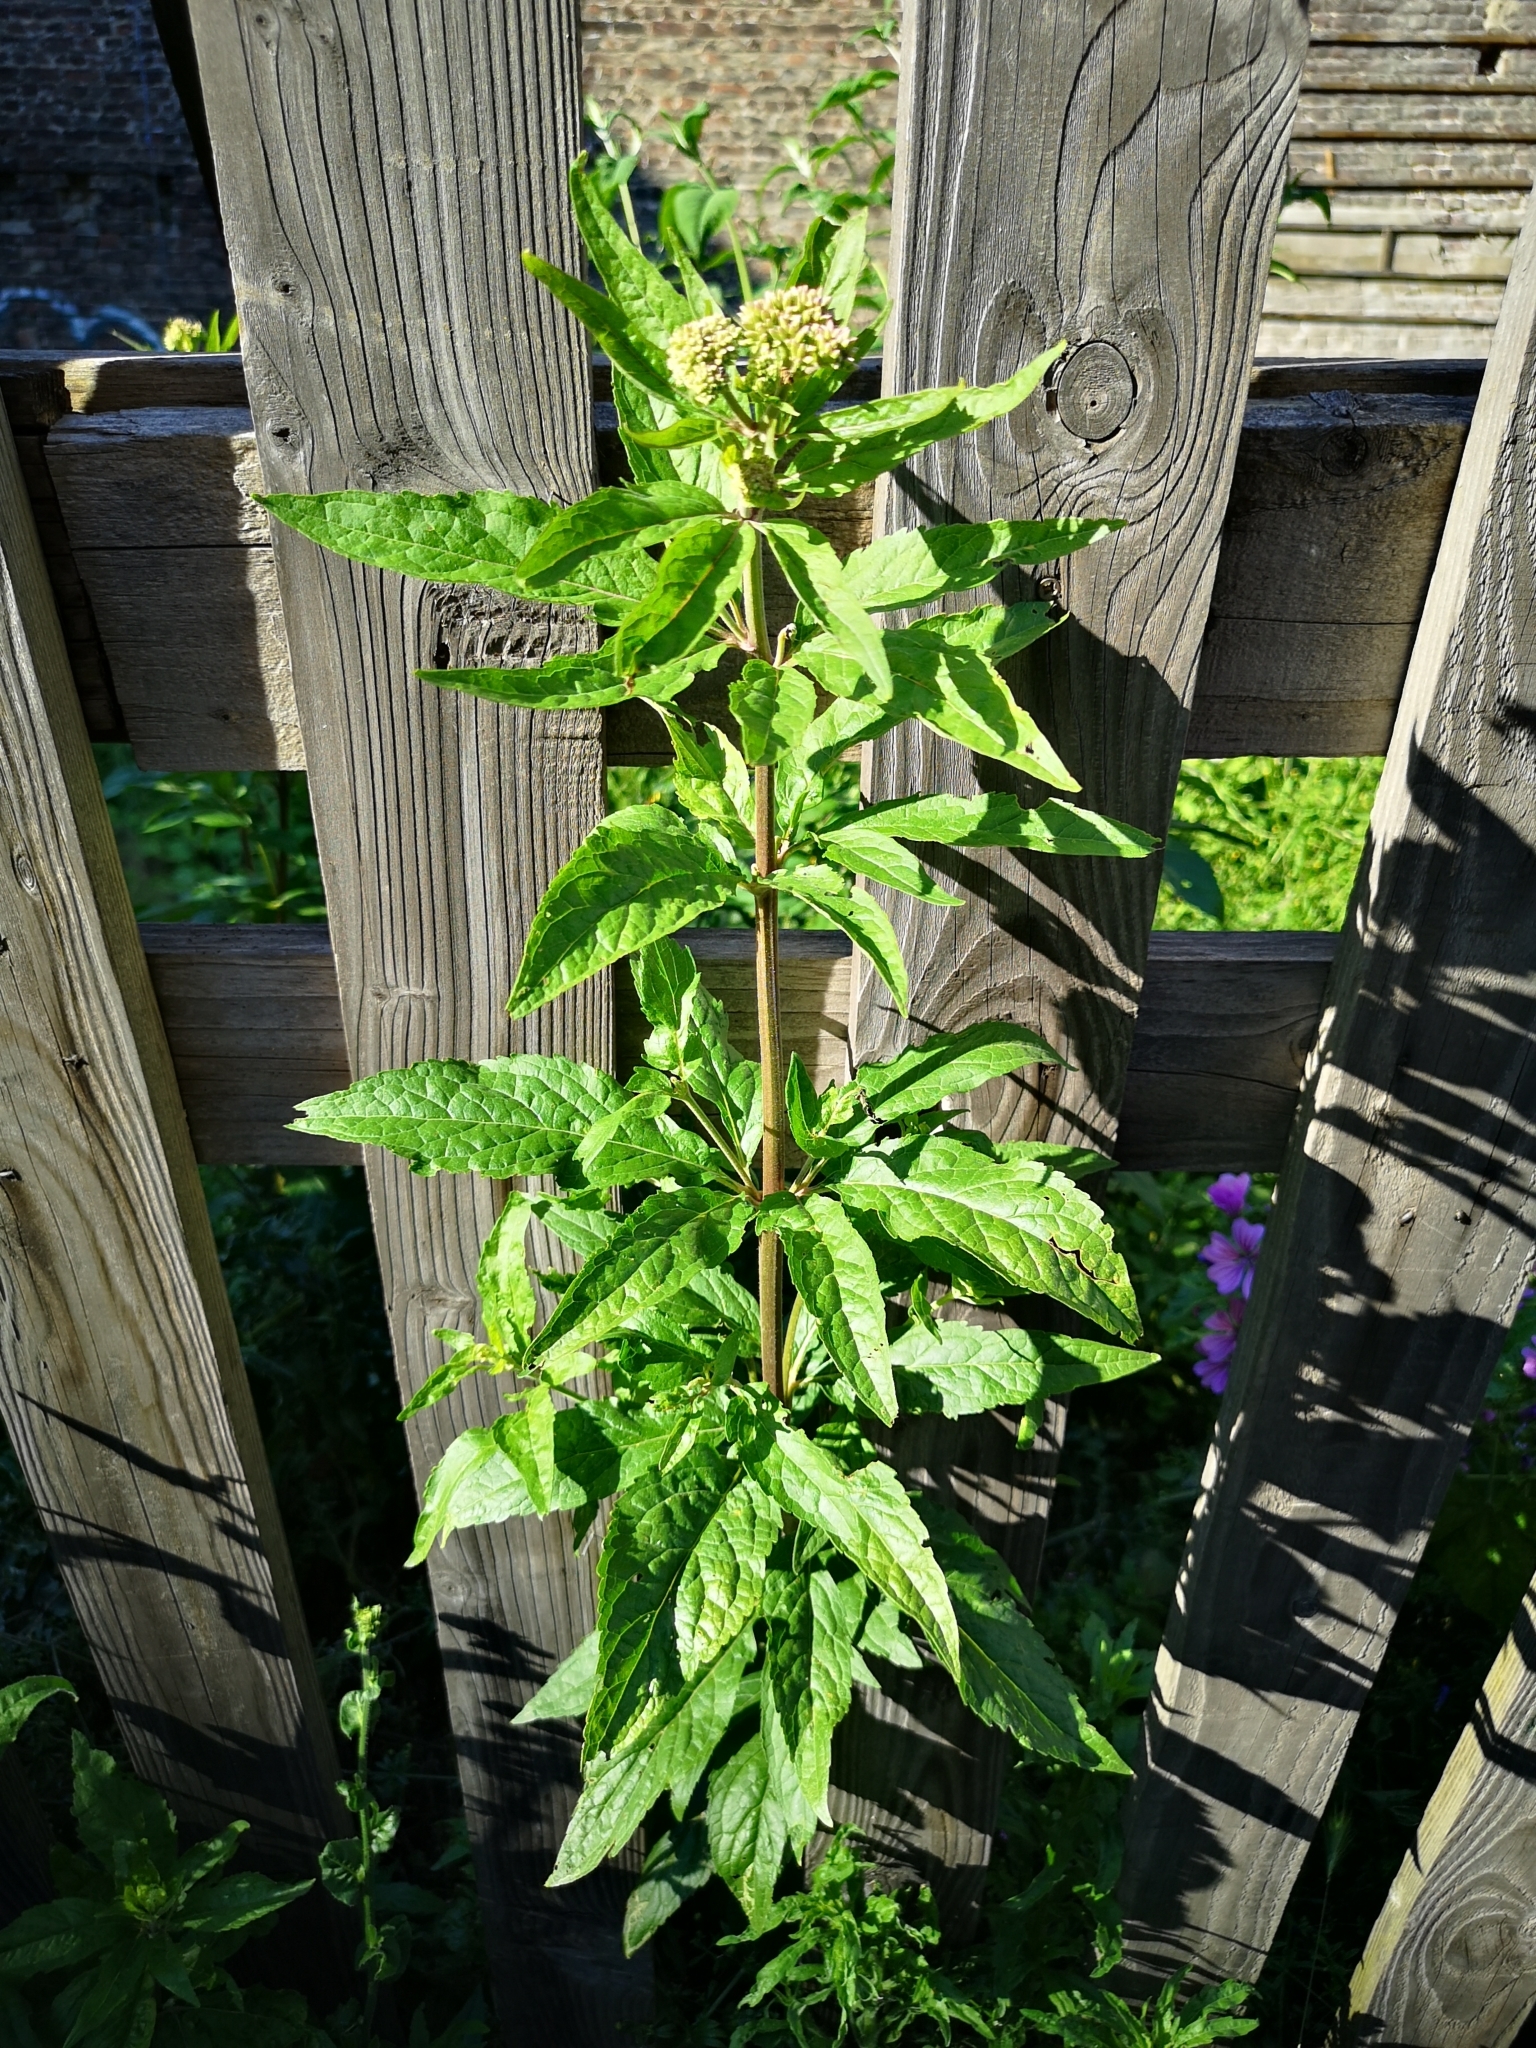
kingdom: Plantae
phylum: Tracheophyta
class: Magnoliopsida
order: Asterales
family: Asteraceae
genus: Eupatorium
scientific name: Eupatorium cannabinum
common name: Hemp-agrimony
